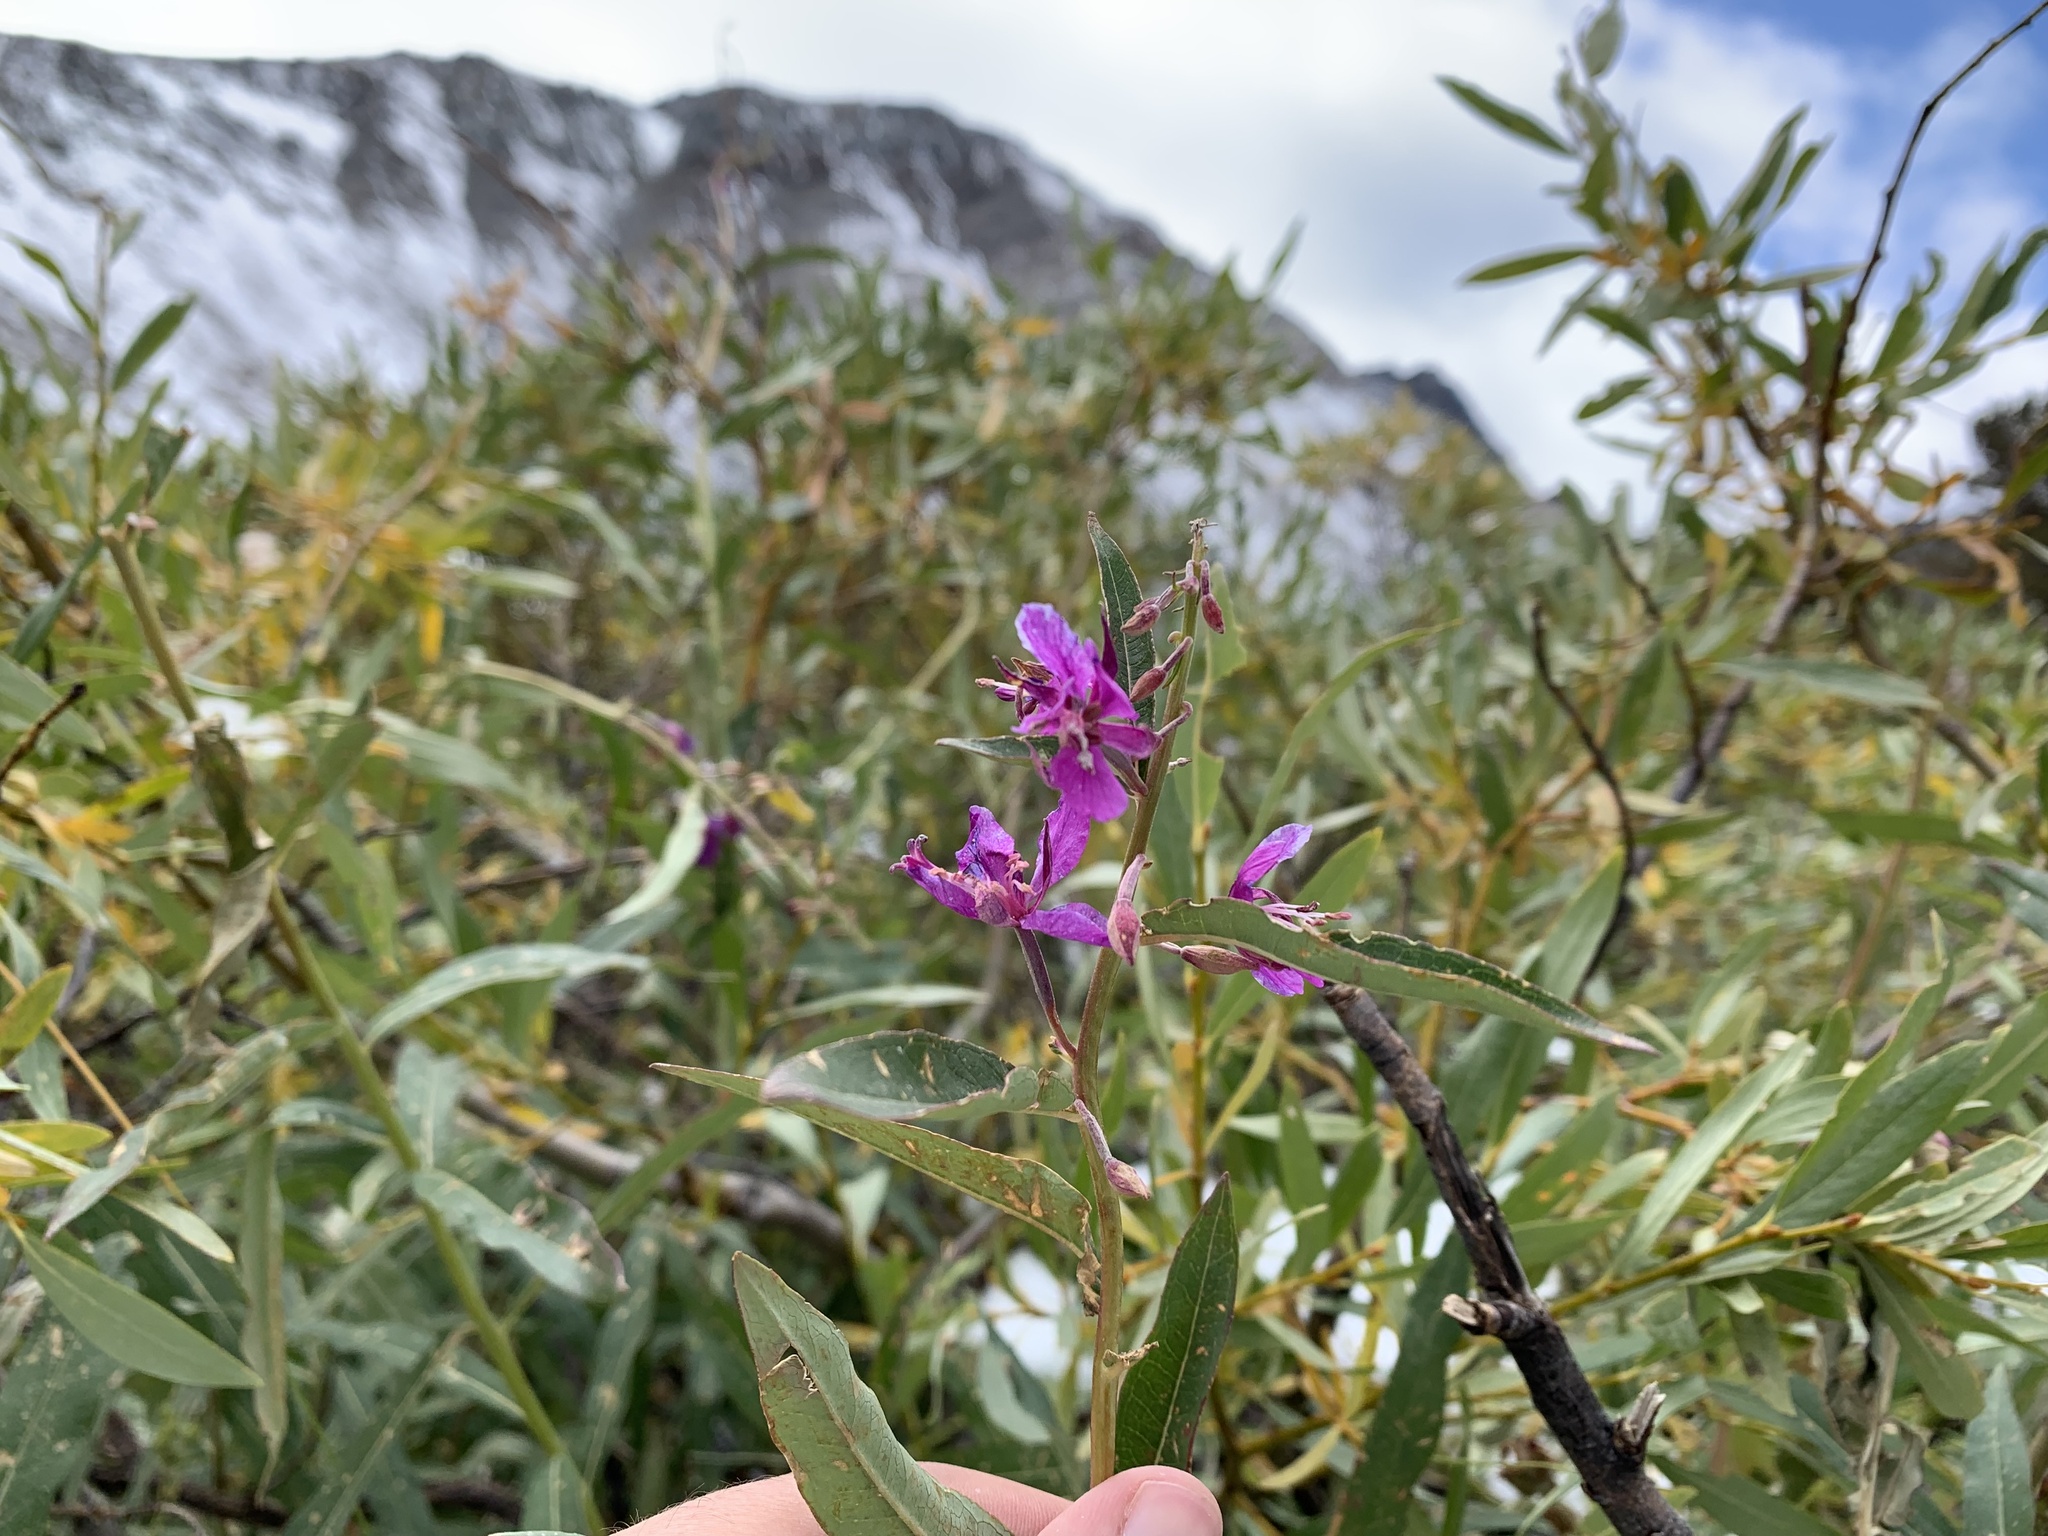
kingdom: Plantae
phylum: Tracheophyta
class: Magnoliopsida
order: Myrtales
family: Onagraceae
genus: Chamaenerion
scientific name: Chamaenerion angustifolium
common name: Fireweed
